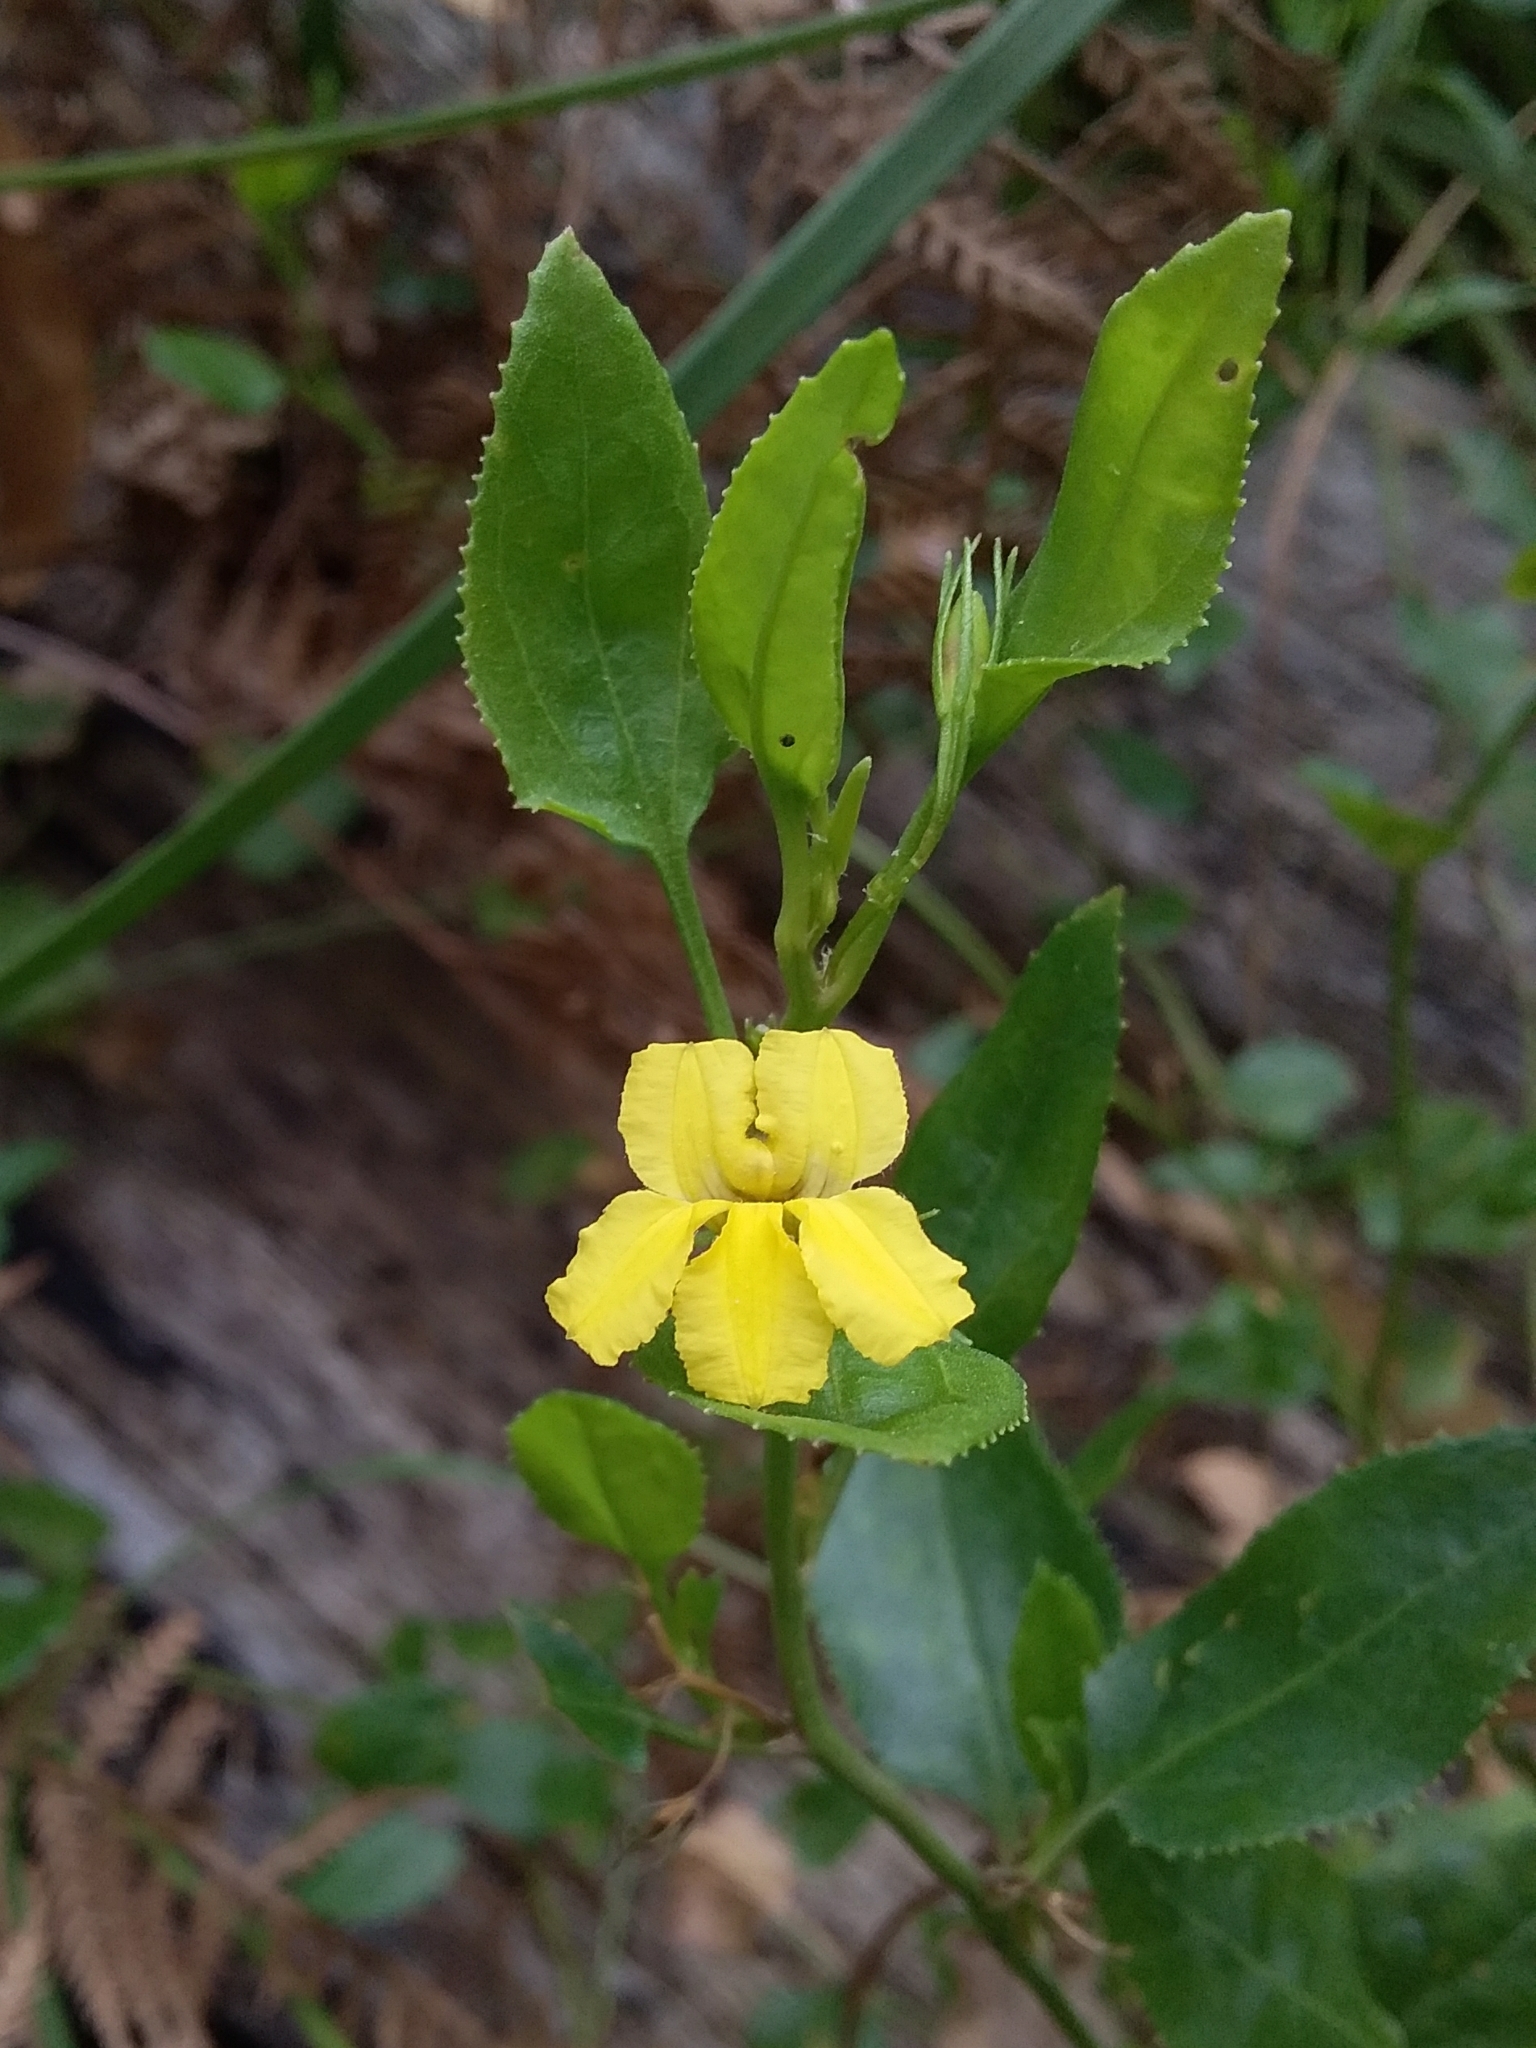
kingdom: Plantae
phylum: Tracheophyta
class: Magnoliopsida
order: Asterales
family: Goodeniaceae
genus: Goodenia
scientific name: Goodenia ovata
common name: Hop goodenia
